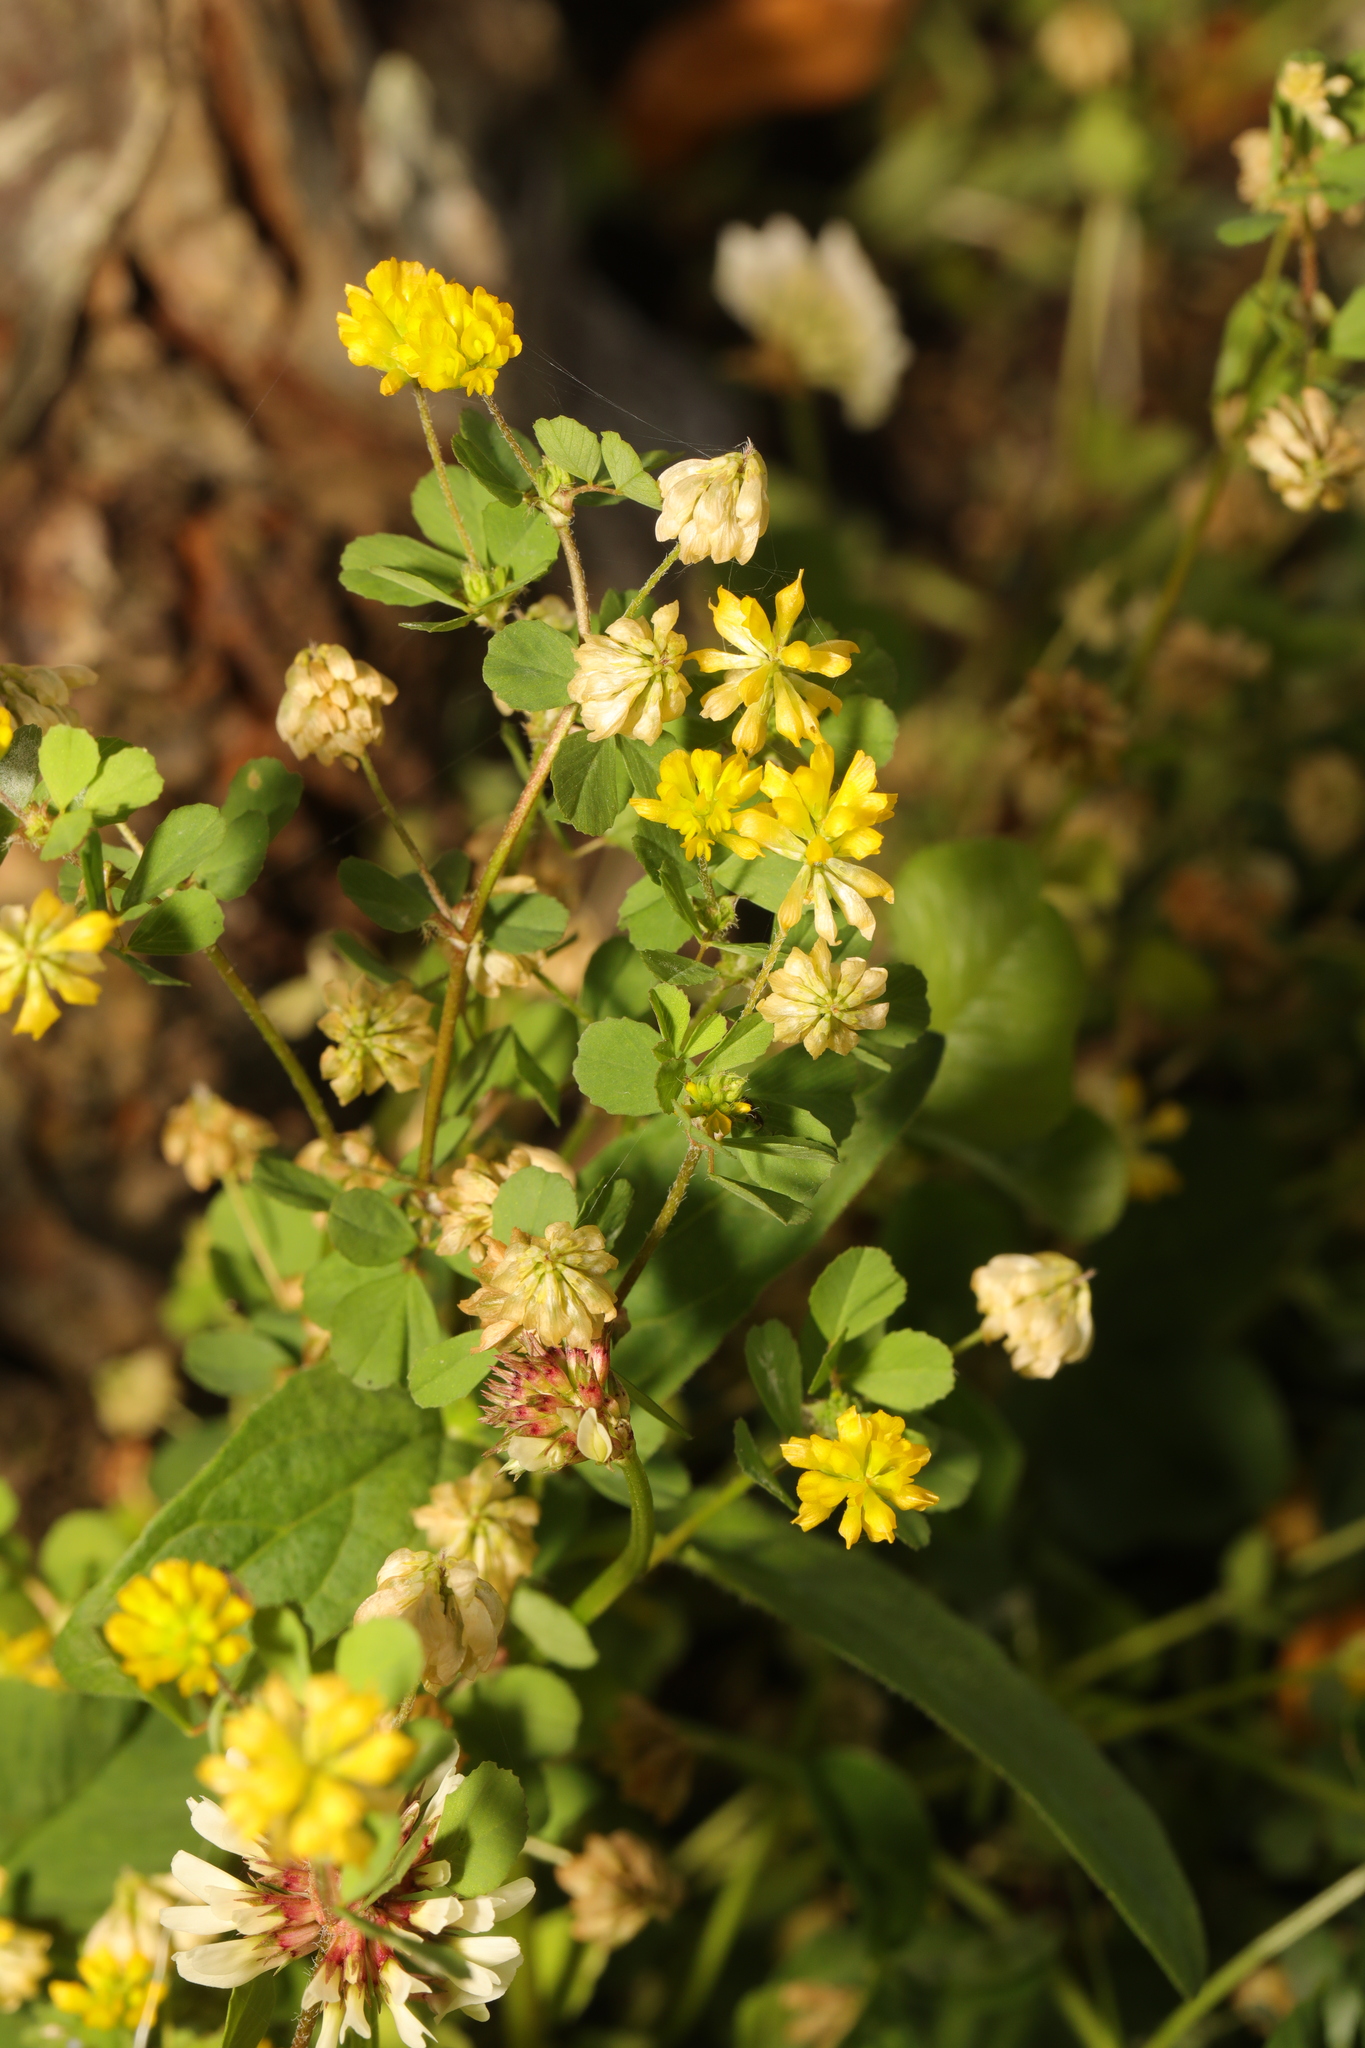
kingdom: Plantae
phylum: Tracheophyta
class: Magnoliopsida
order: Fabales
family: Fabaceae
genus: Trifolium
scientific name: Trifolium dubium
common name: Suckling clover
